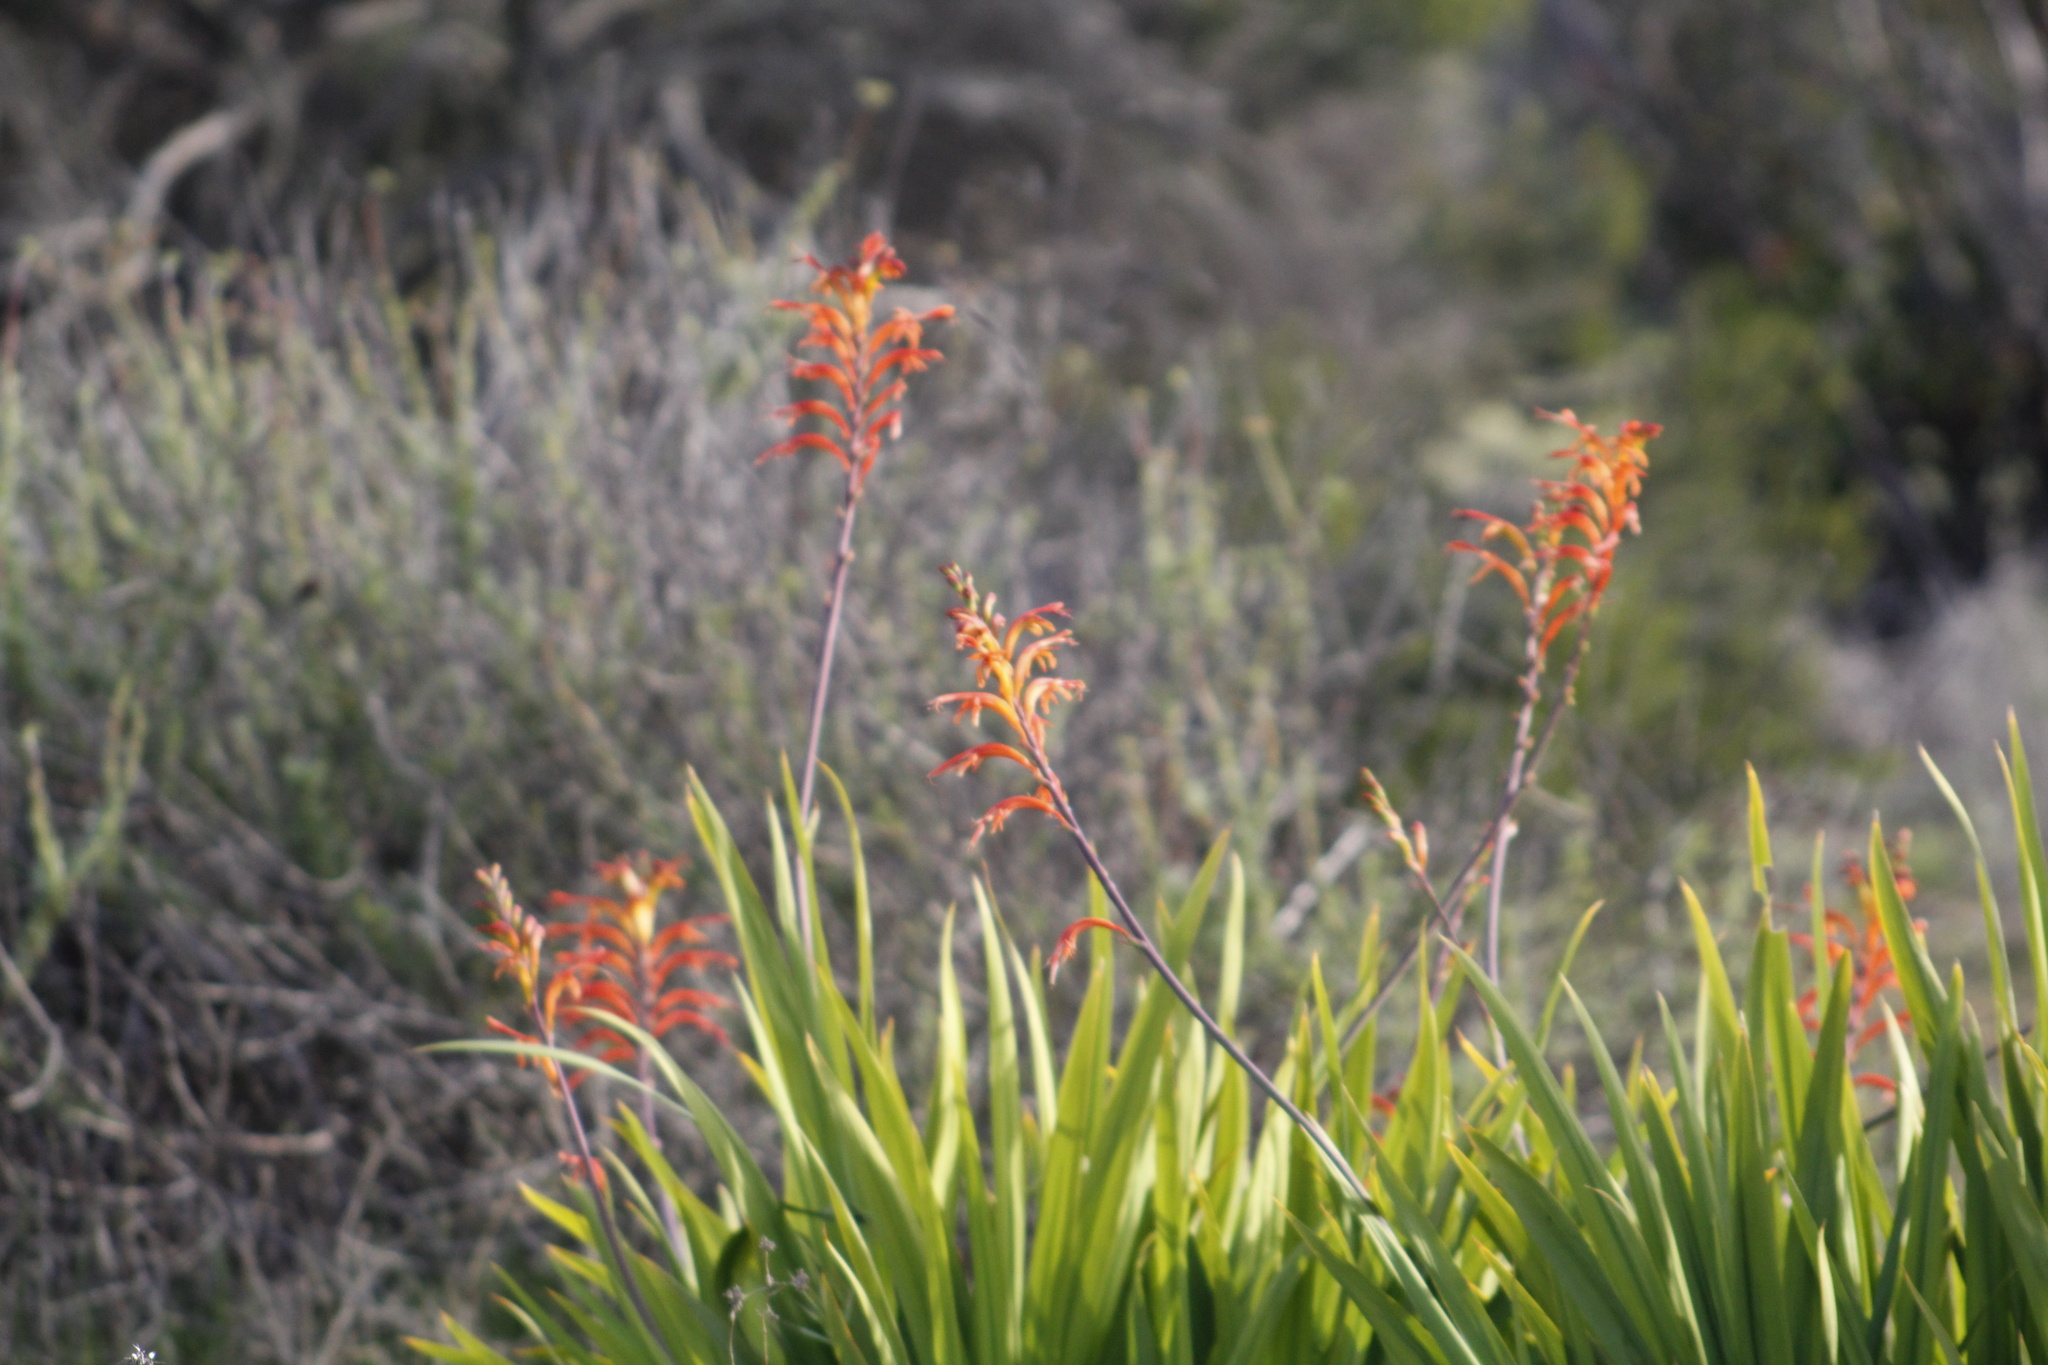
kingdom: Plantae
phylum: Tracheophyta
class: Liliopsida
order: Asparagales
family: Iridaceae
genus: Chasmanthe
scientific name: Chasmanthe floribunda
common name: African cornflag
